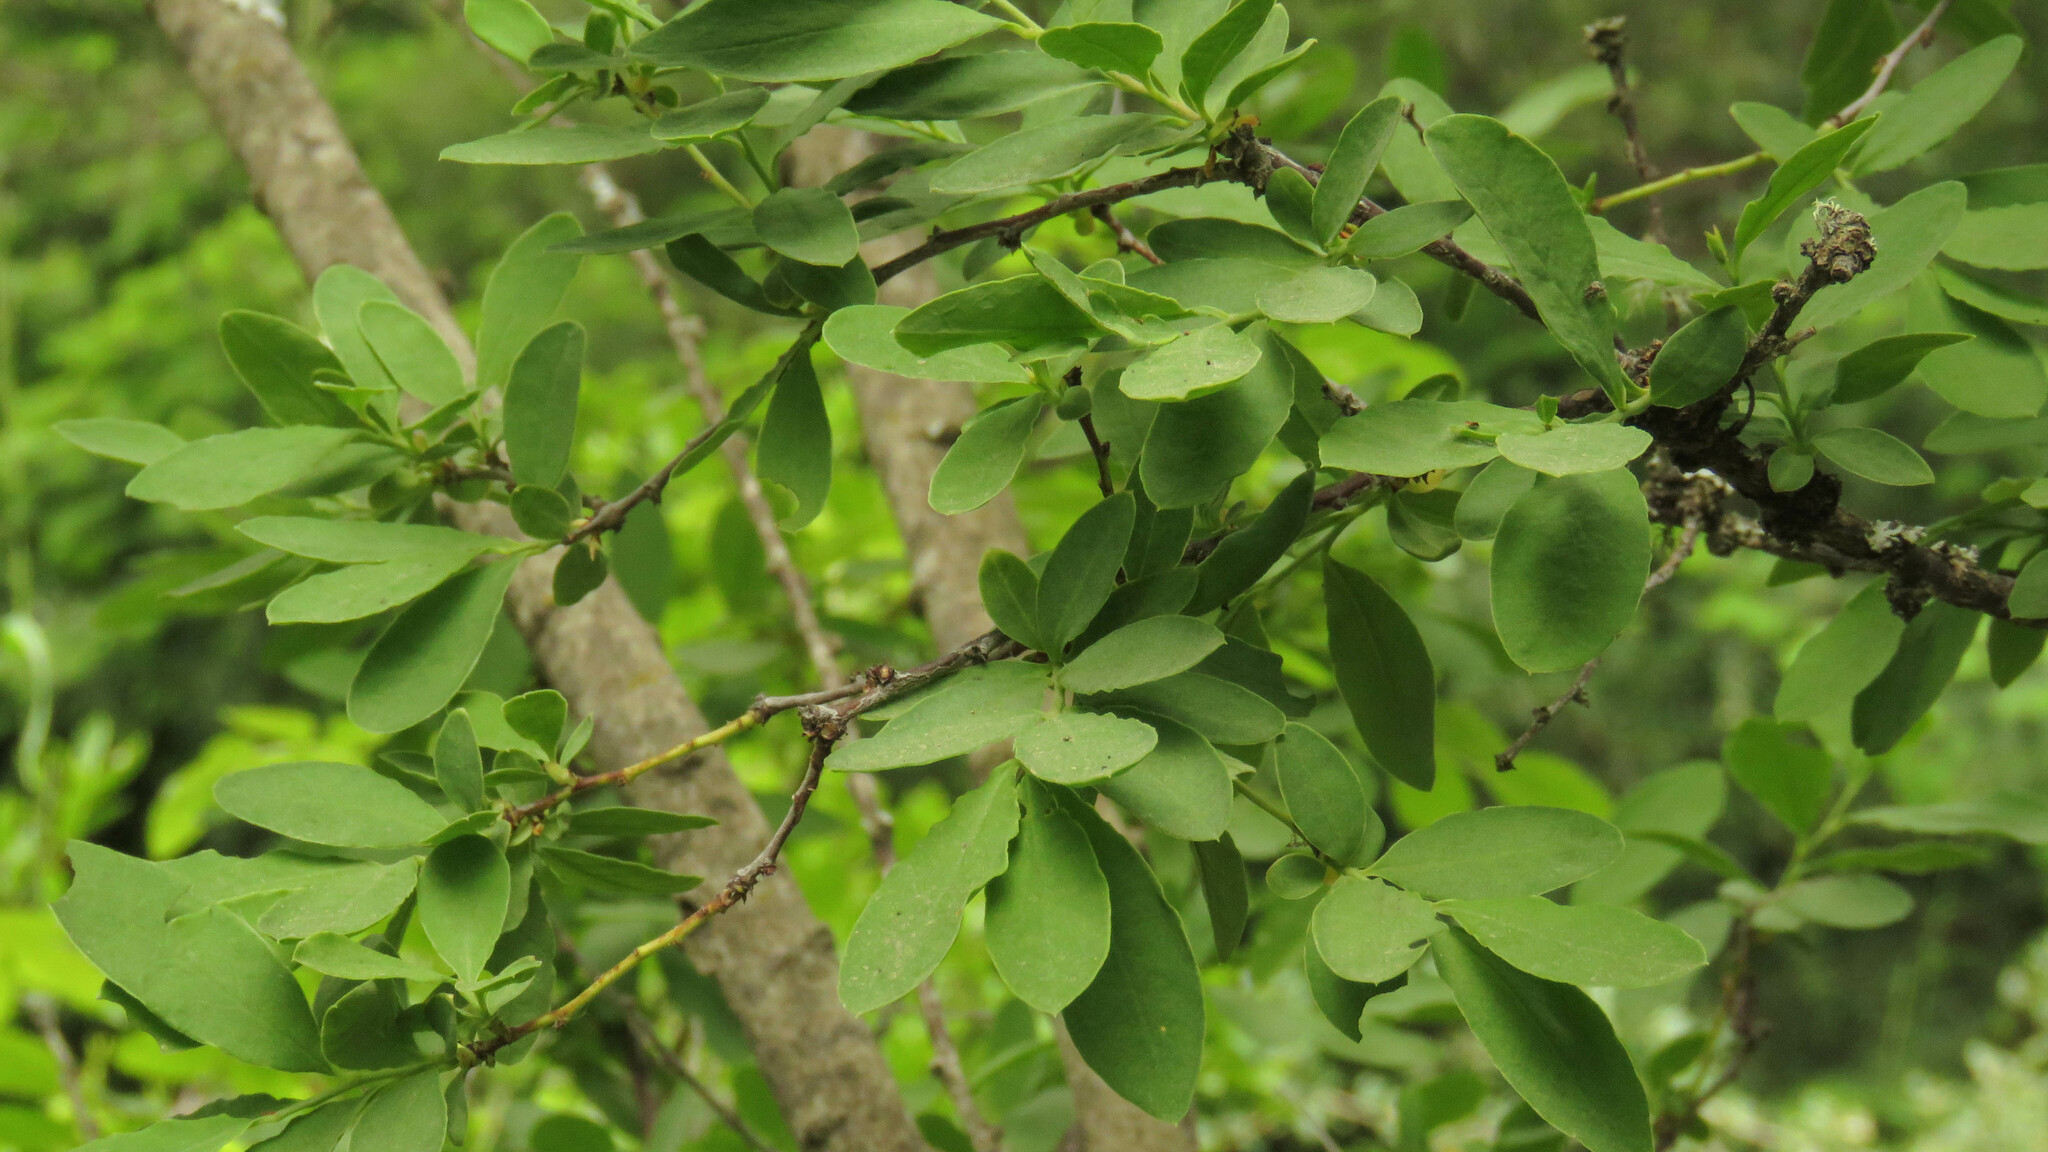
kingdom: Plantae
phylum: Tracheophyta
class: Magnoliopsida
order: Santalales
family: Santalaceae
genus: Myoschilos
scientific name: Myoschilos oblongum
